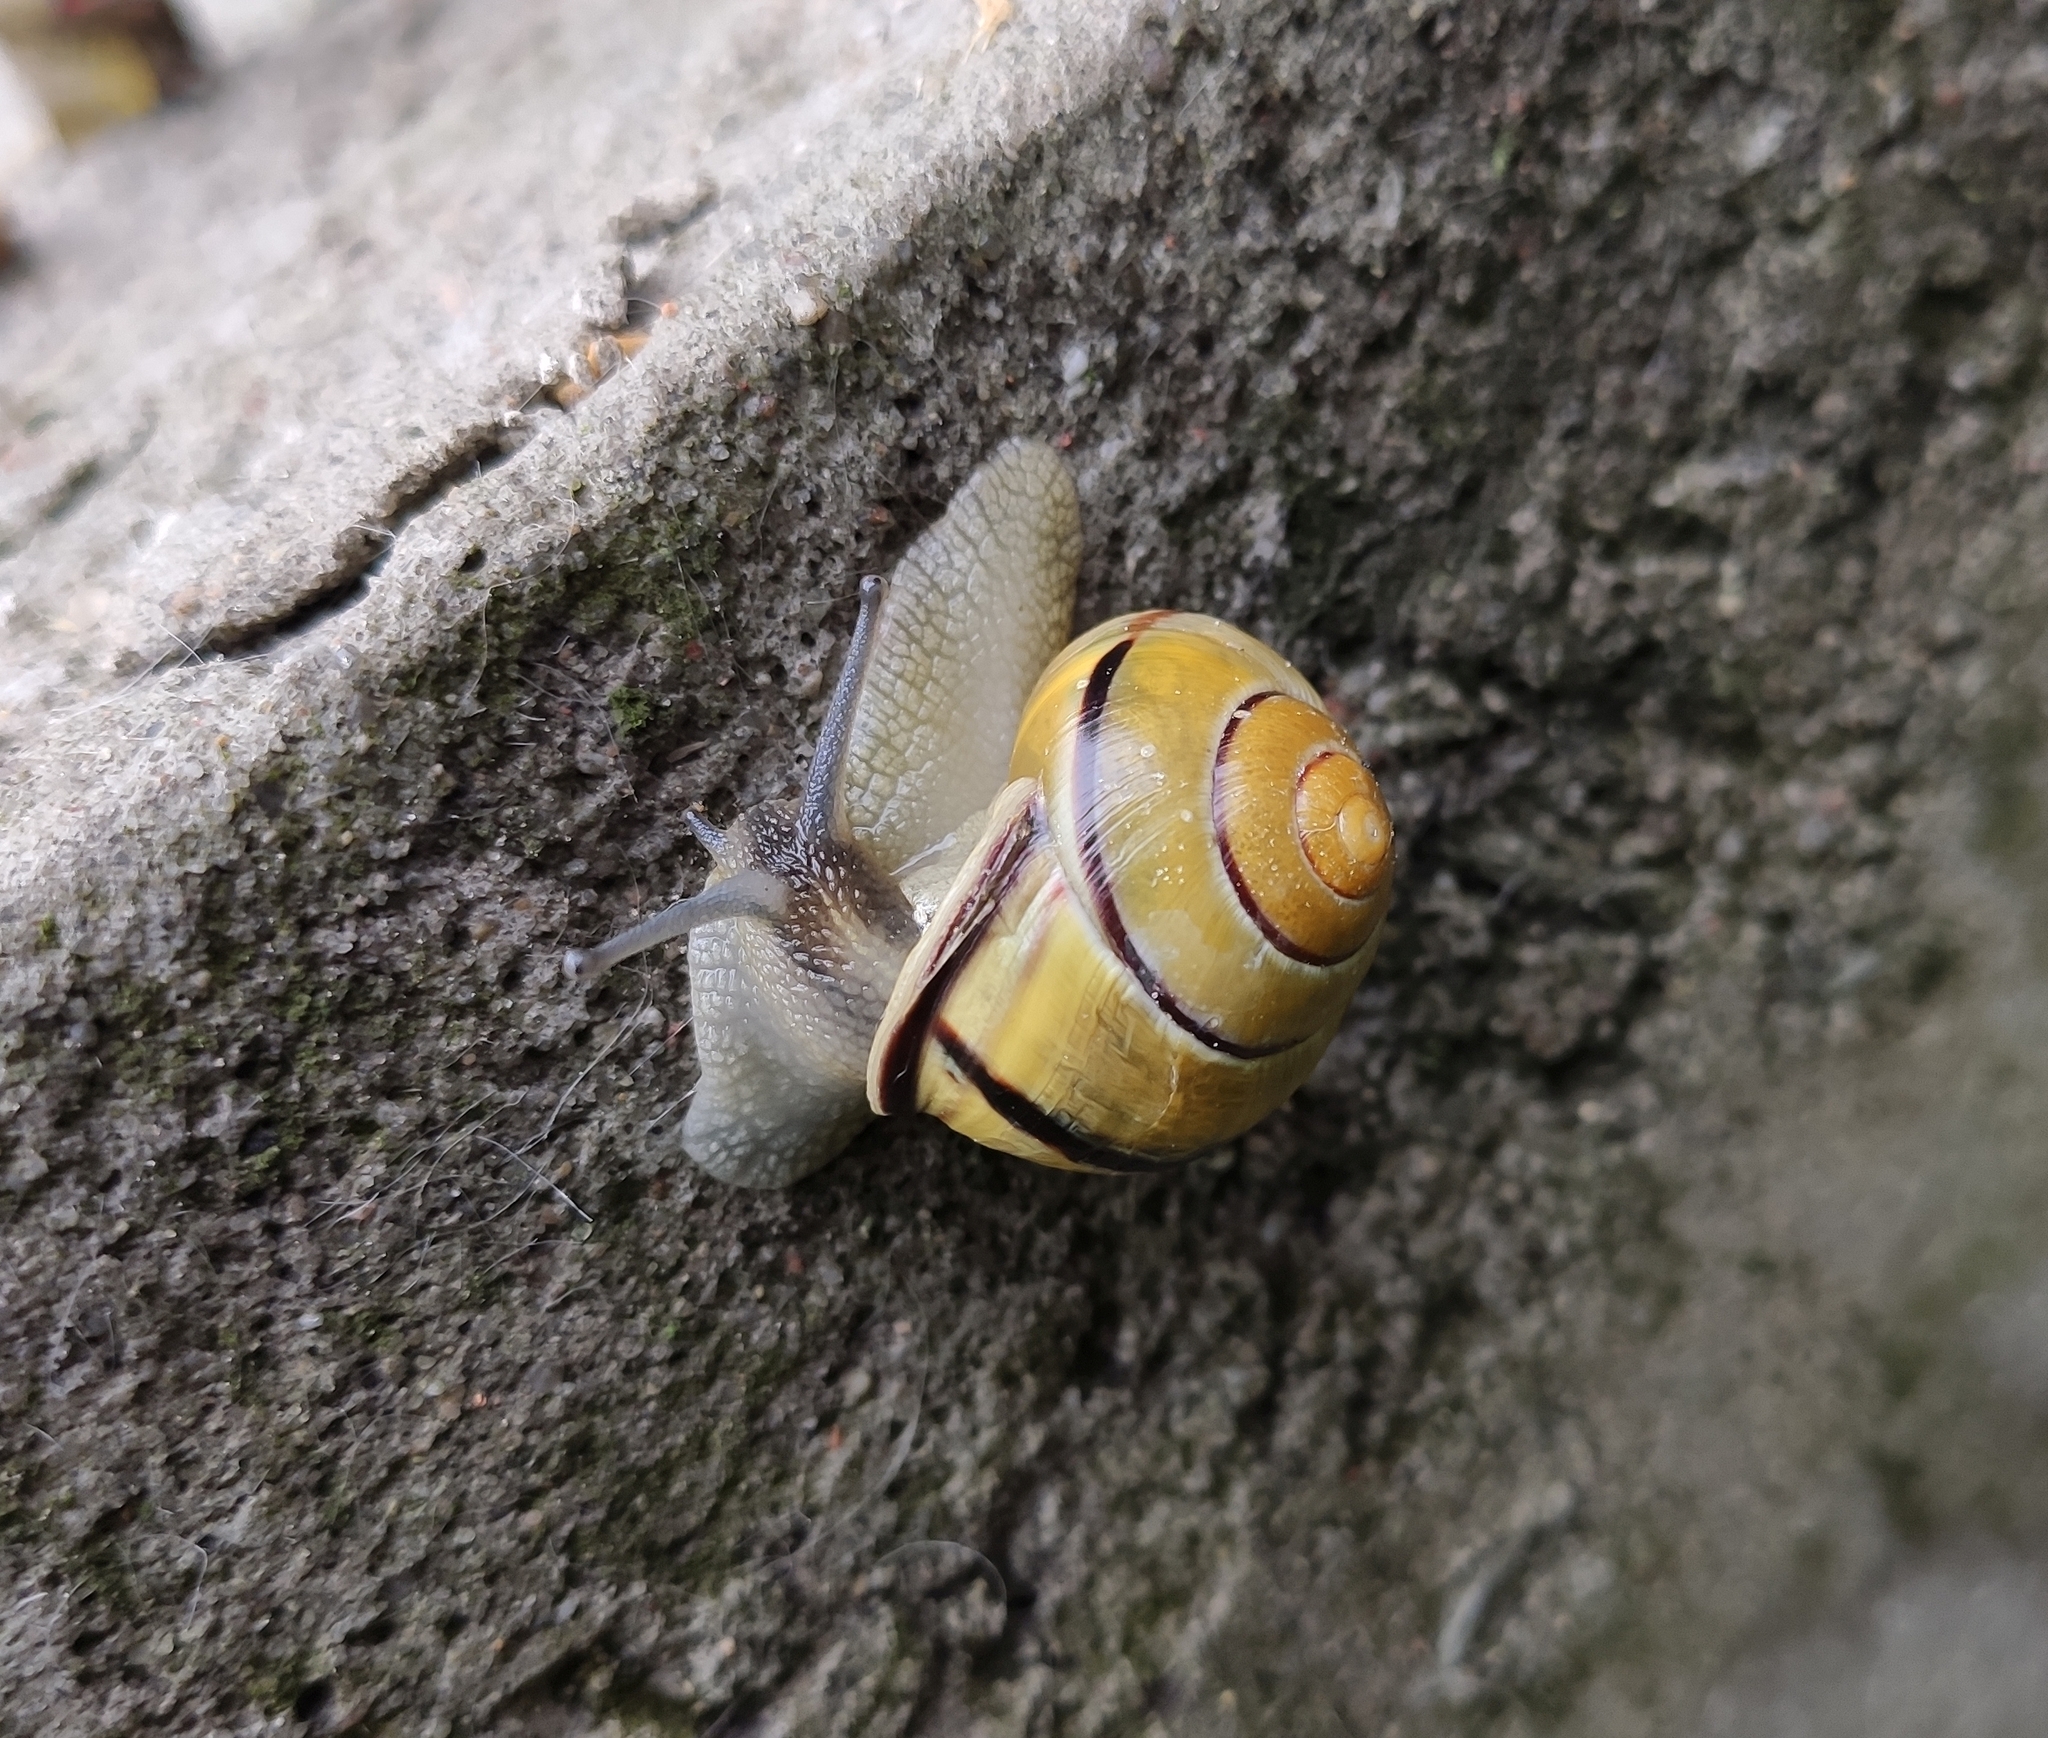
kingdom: Animalia
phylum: Mollusca
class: Gastropoda
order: Stylommatophora
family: Helicidae
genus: Cepaea
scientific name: Cepaea nemoralis
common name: Grovesnail
